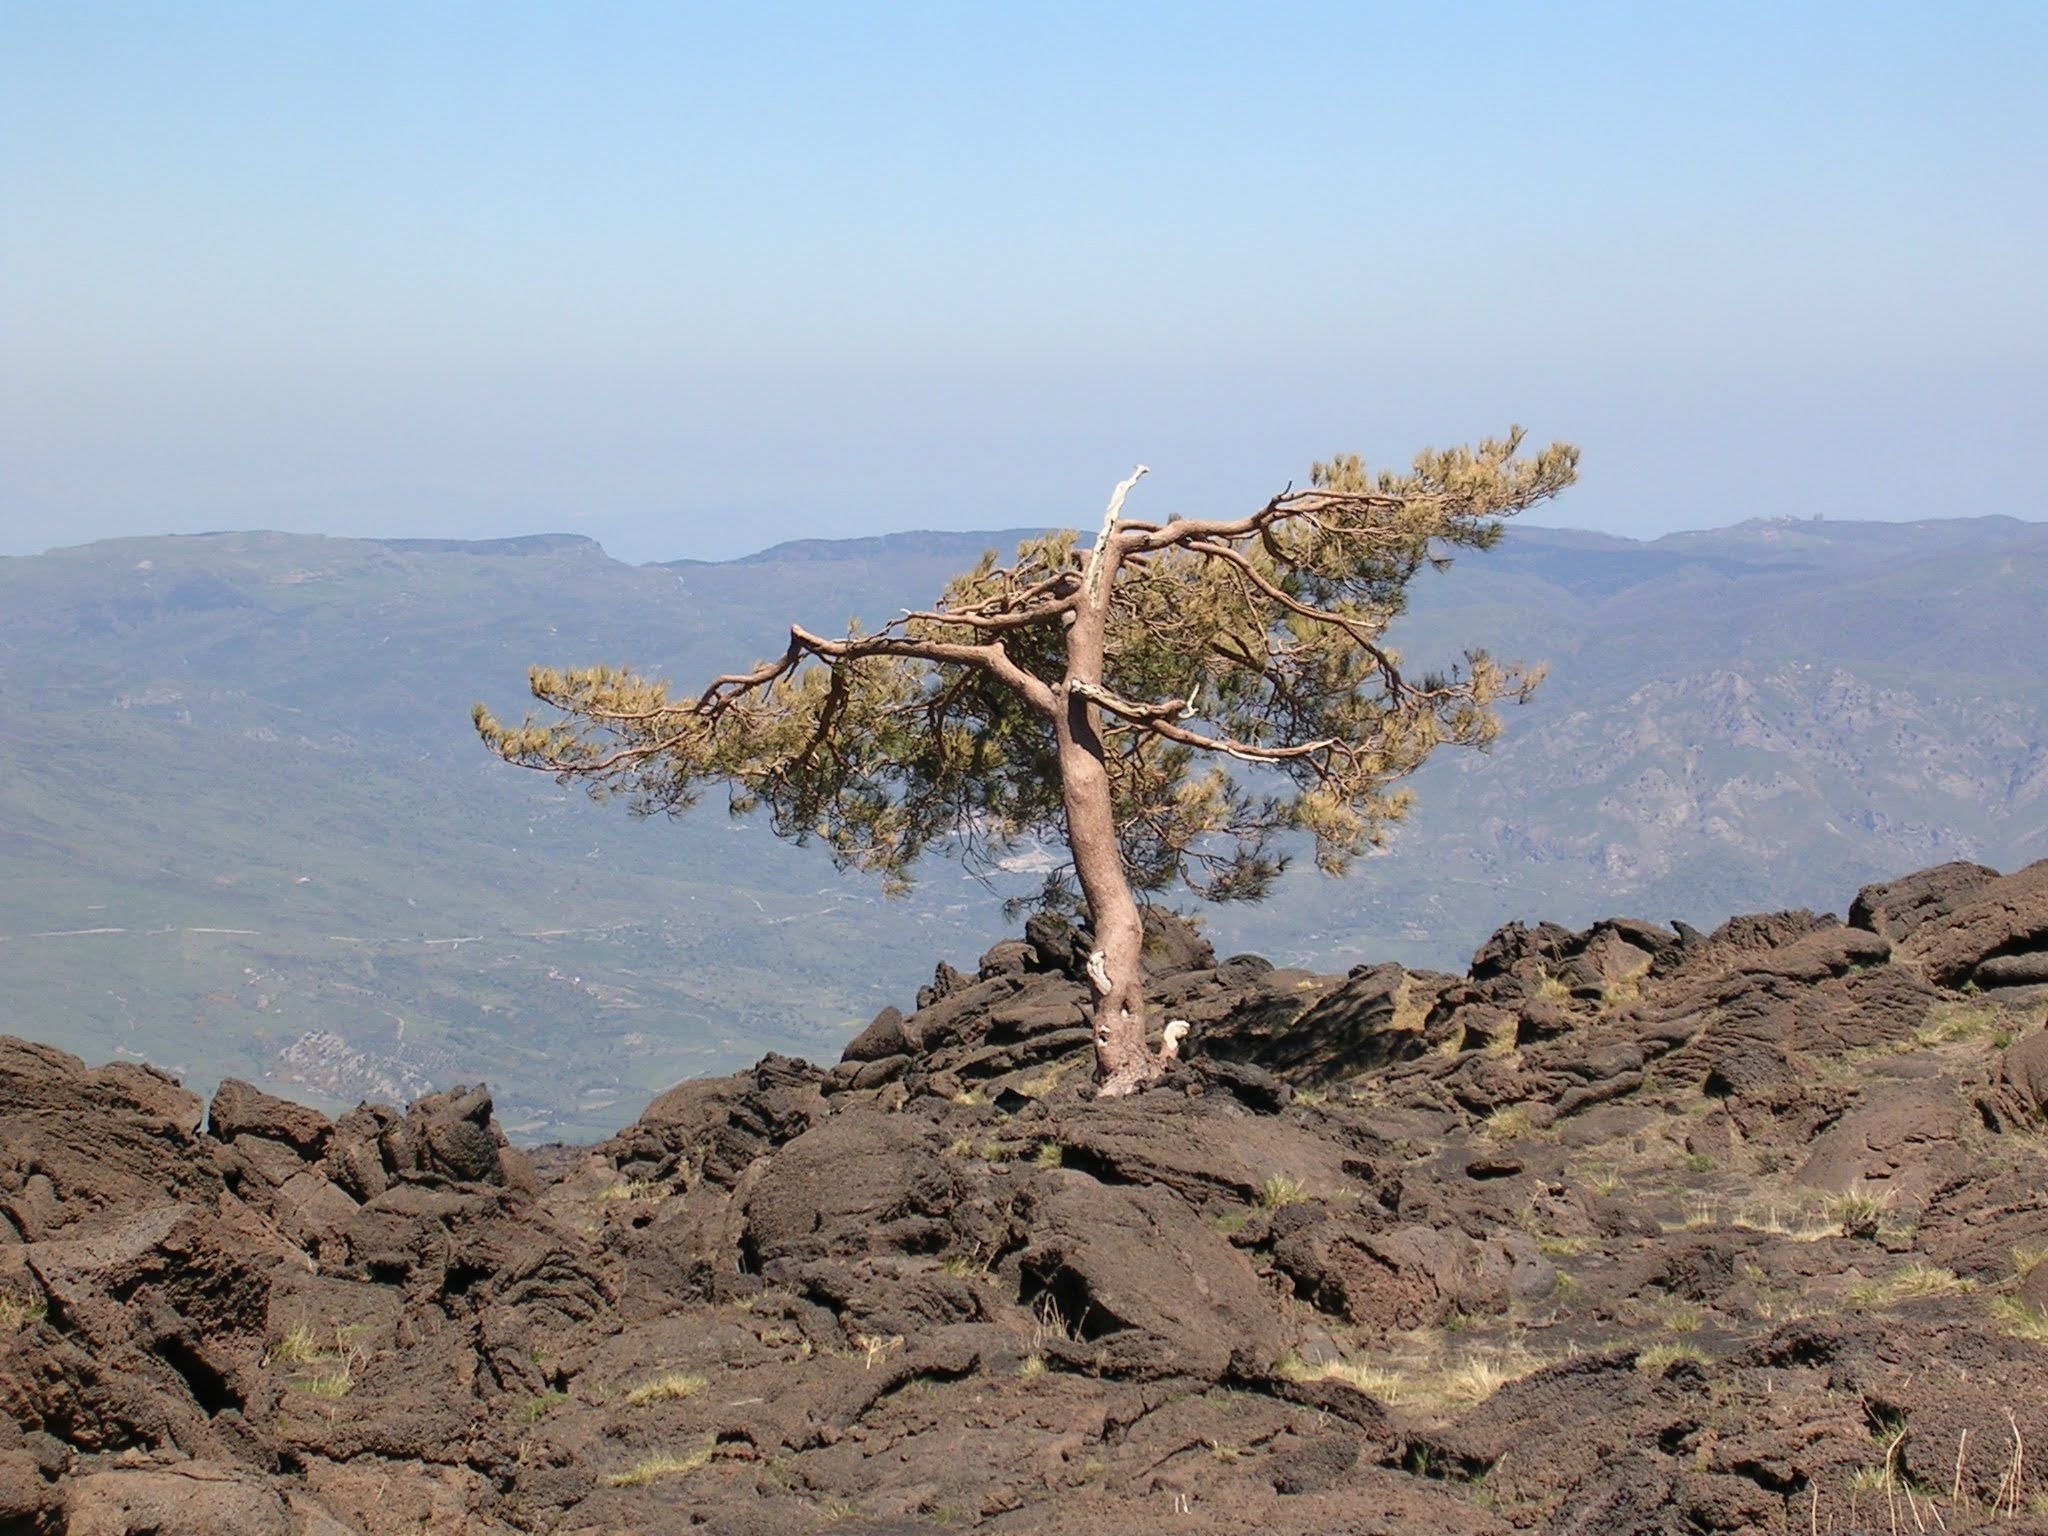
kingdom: Plantae
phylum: Tracheophyta
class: Pinopsida
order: Pinales
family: Pinaceae
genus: Pinus
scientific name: Pinus nigra
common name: Austrian pine
